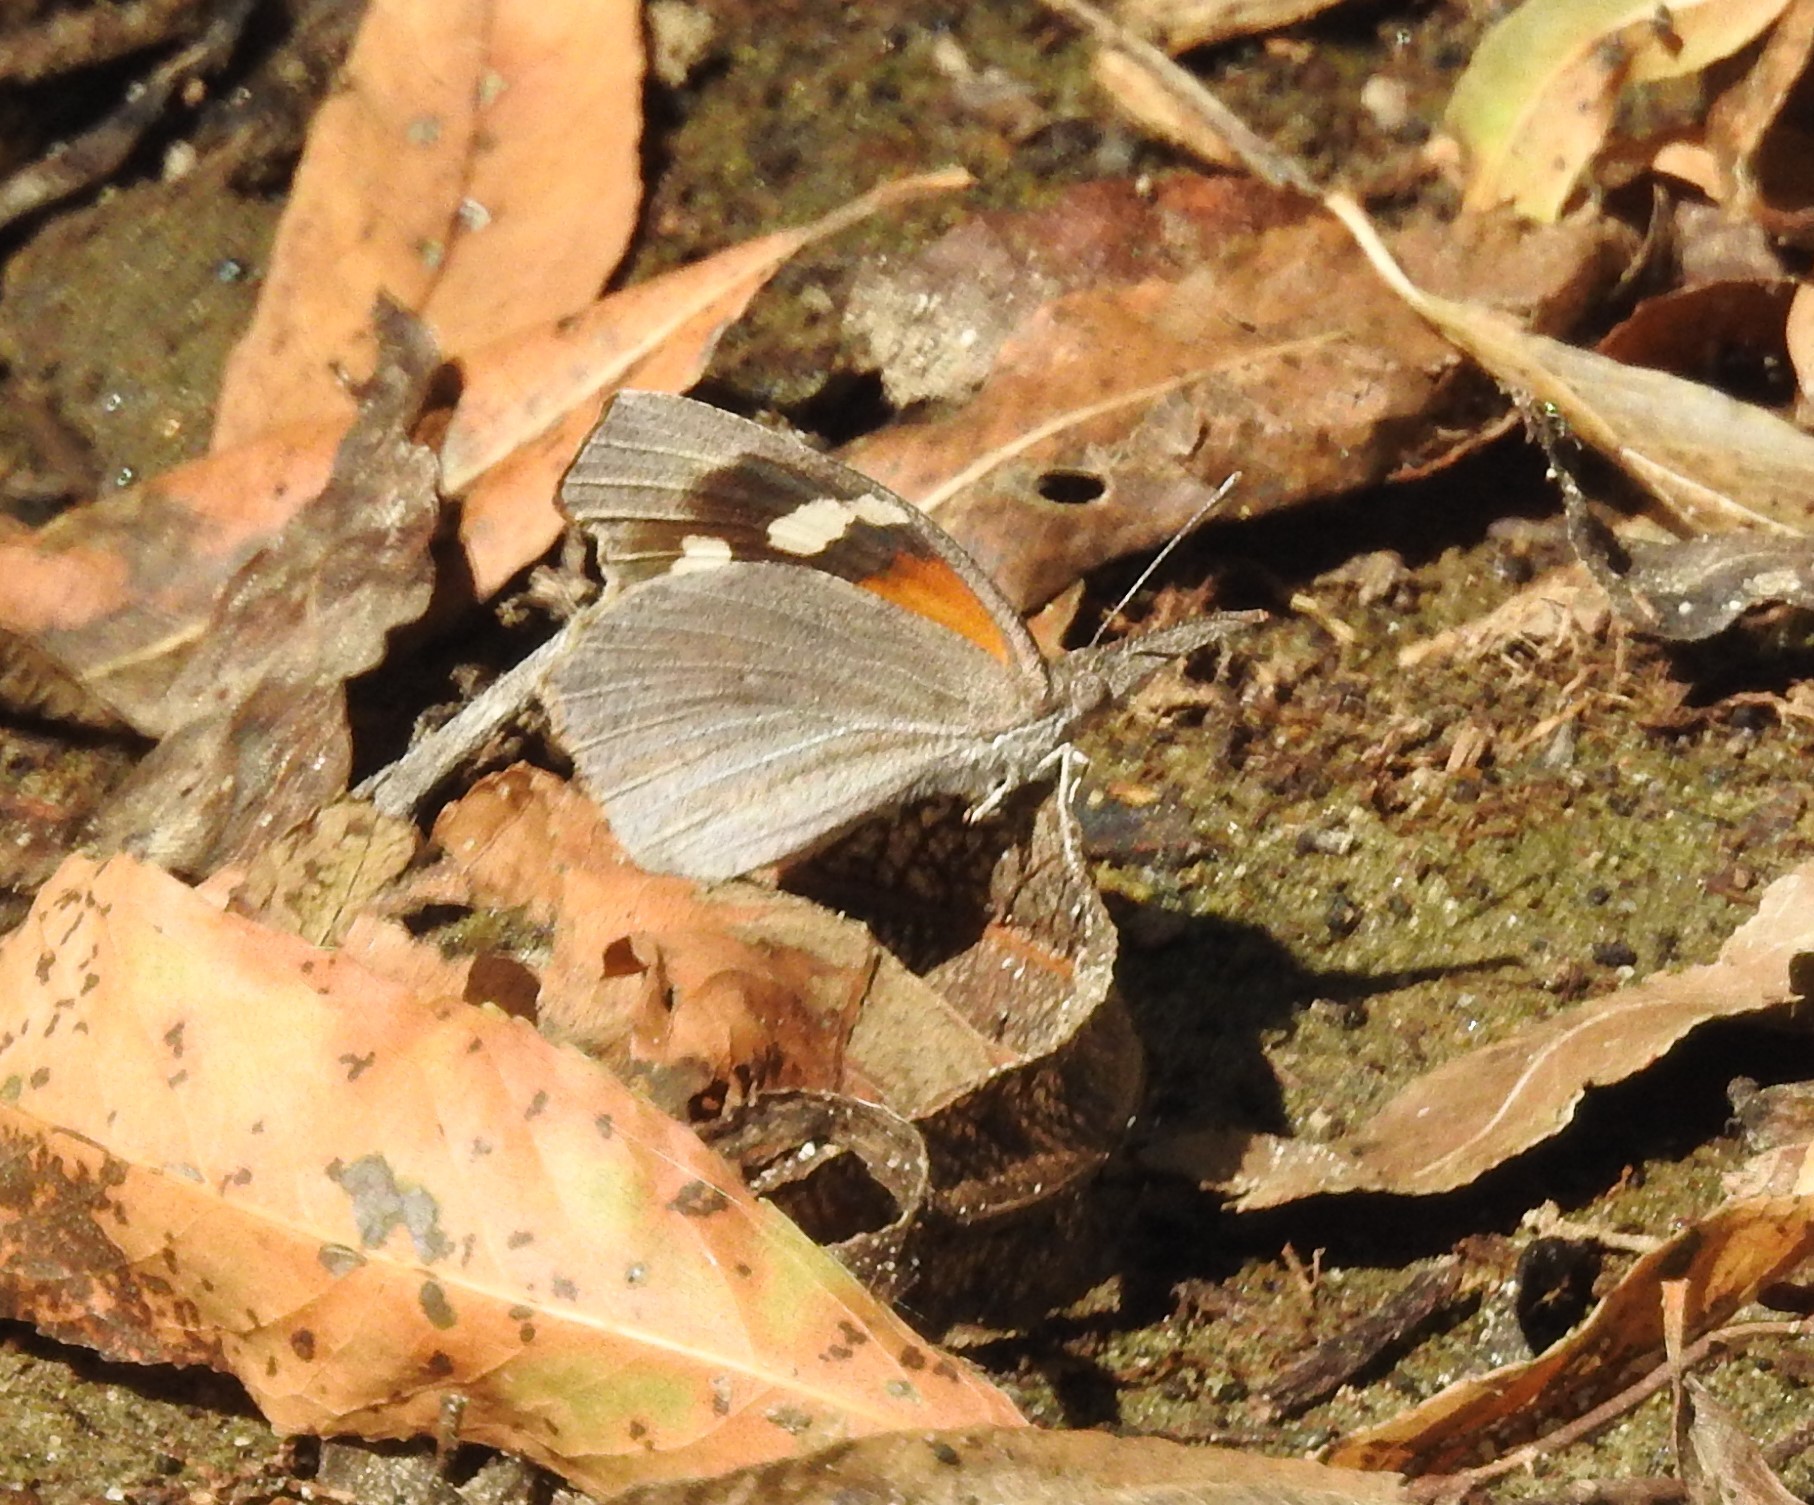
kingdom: Animalia
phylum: Arthropoda
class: Insecta
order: Lepidoptera
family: Nymphalidae
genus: Libytheana
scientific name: Libytheana carinenta
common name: American snout
